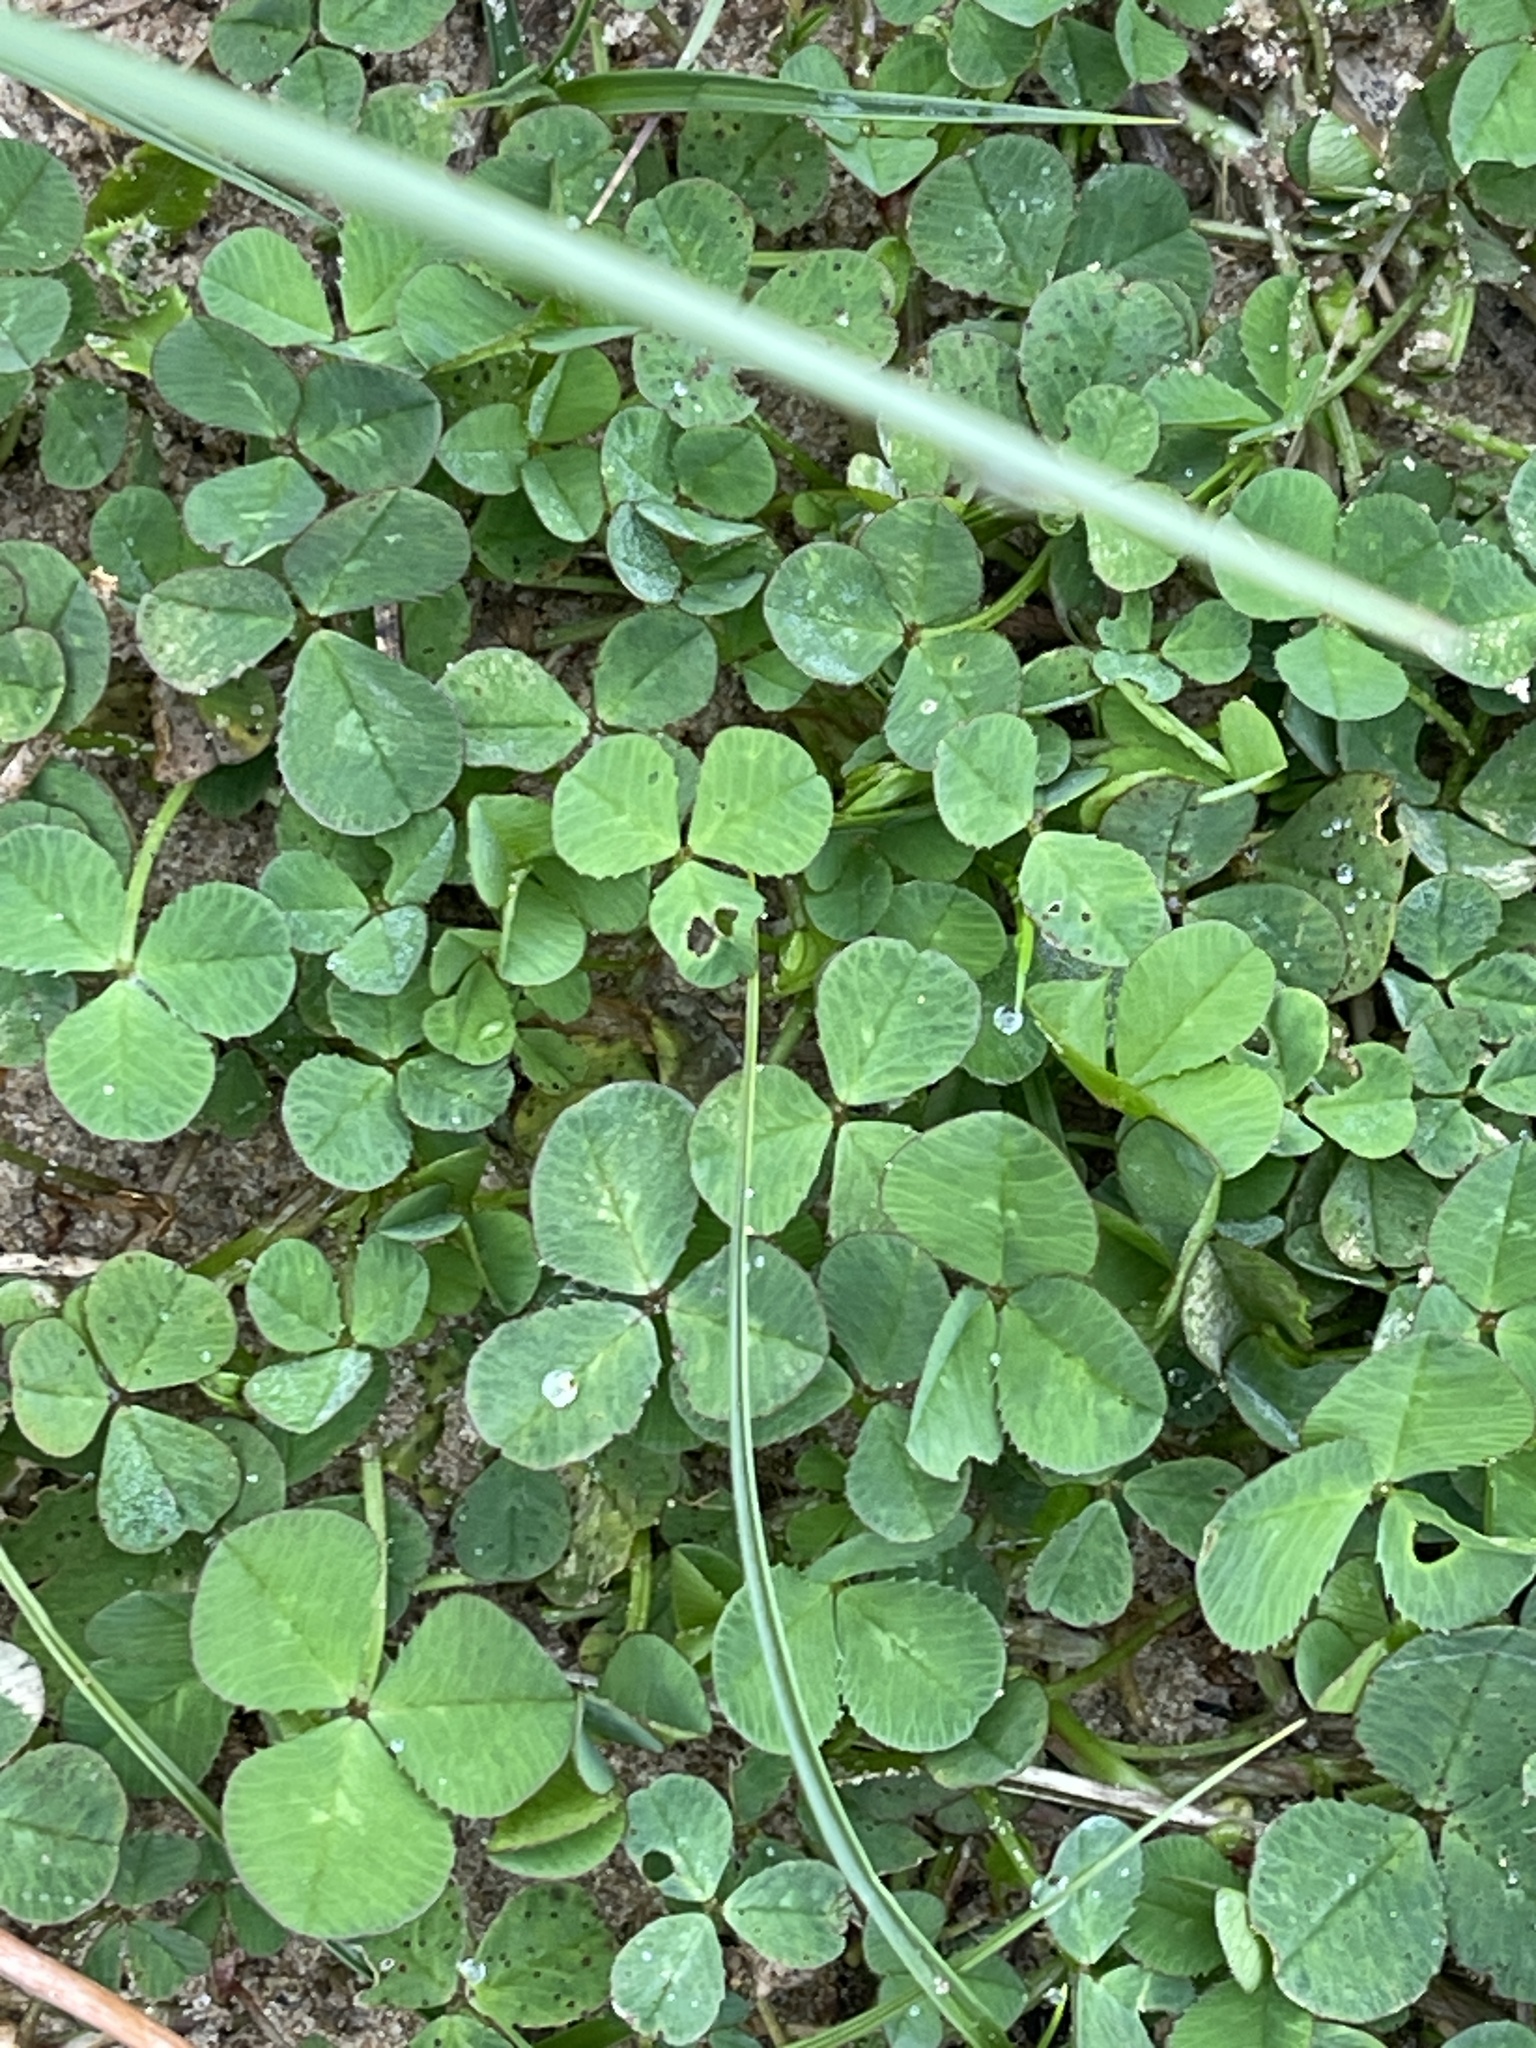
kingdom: Plantae
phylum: Tracheophyta
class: Magnoliopsida
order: Fabales
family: Fabaceae
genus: Trifolium
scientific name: Trifolium repens
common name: White clover
